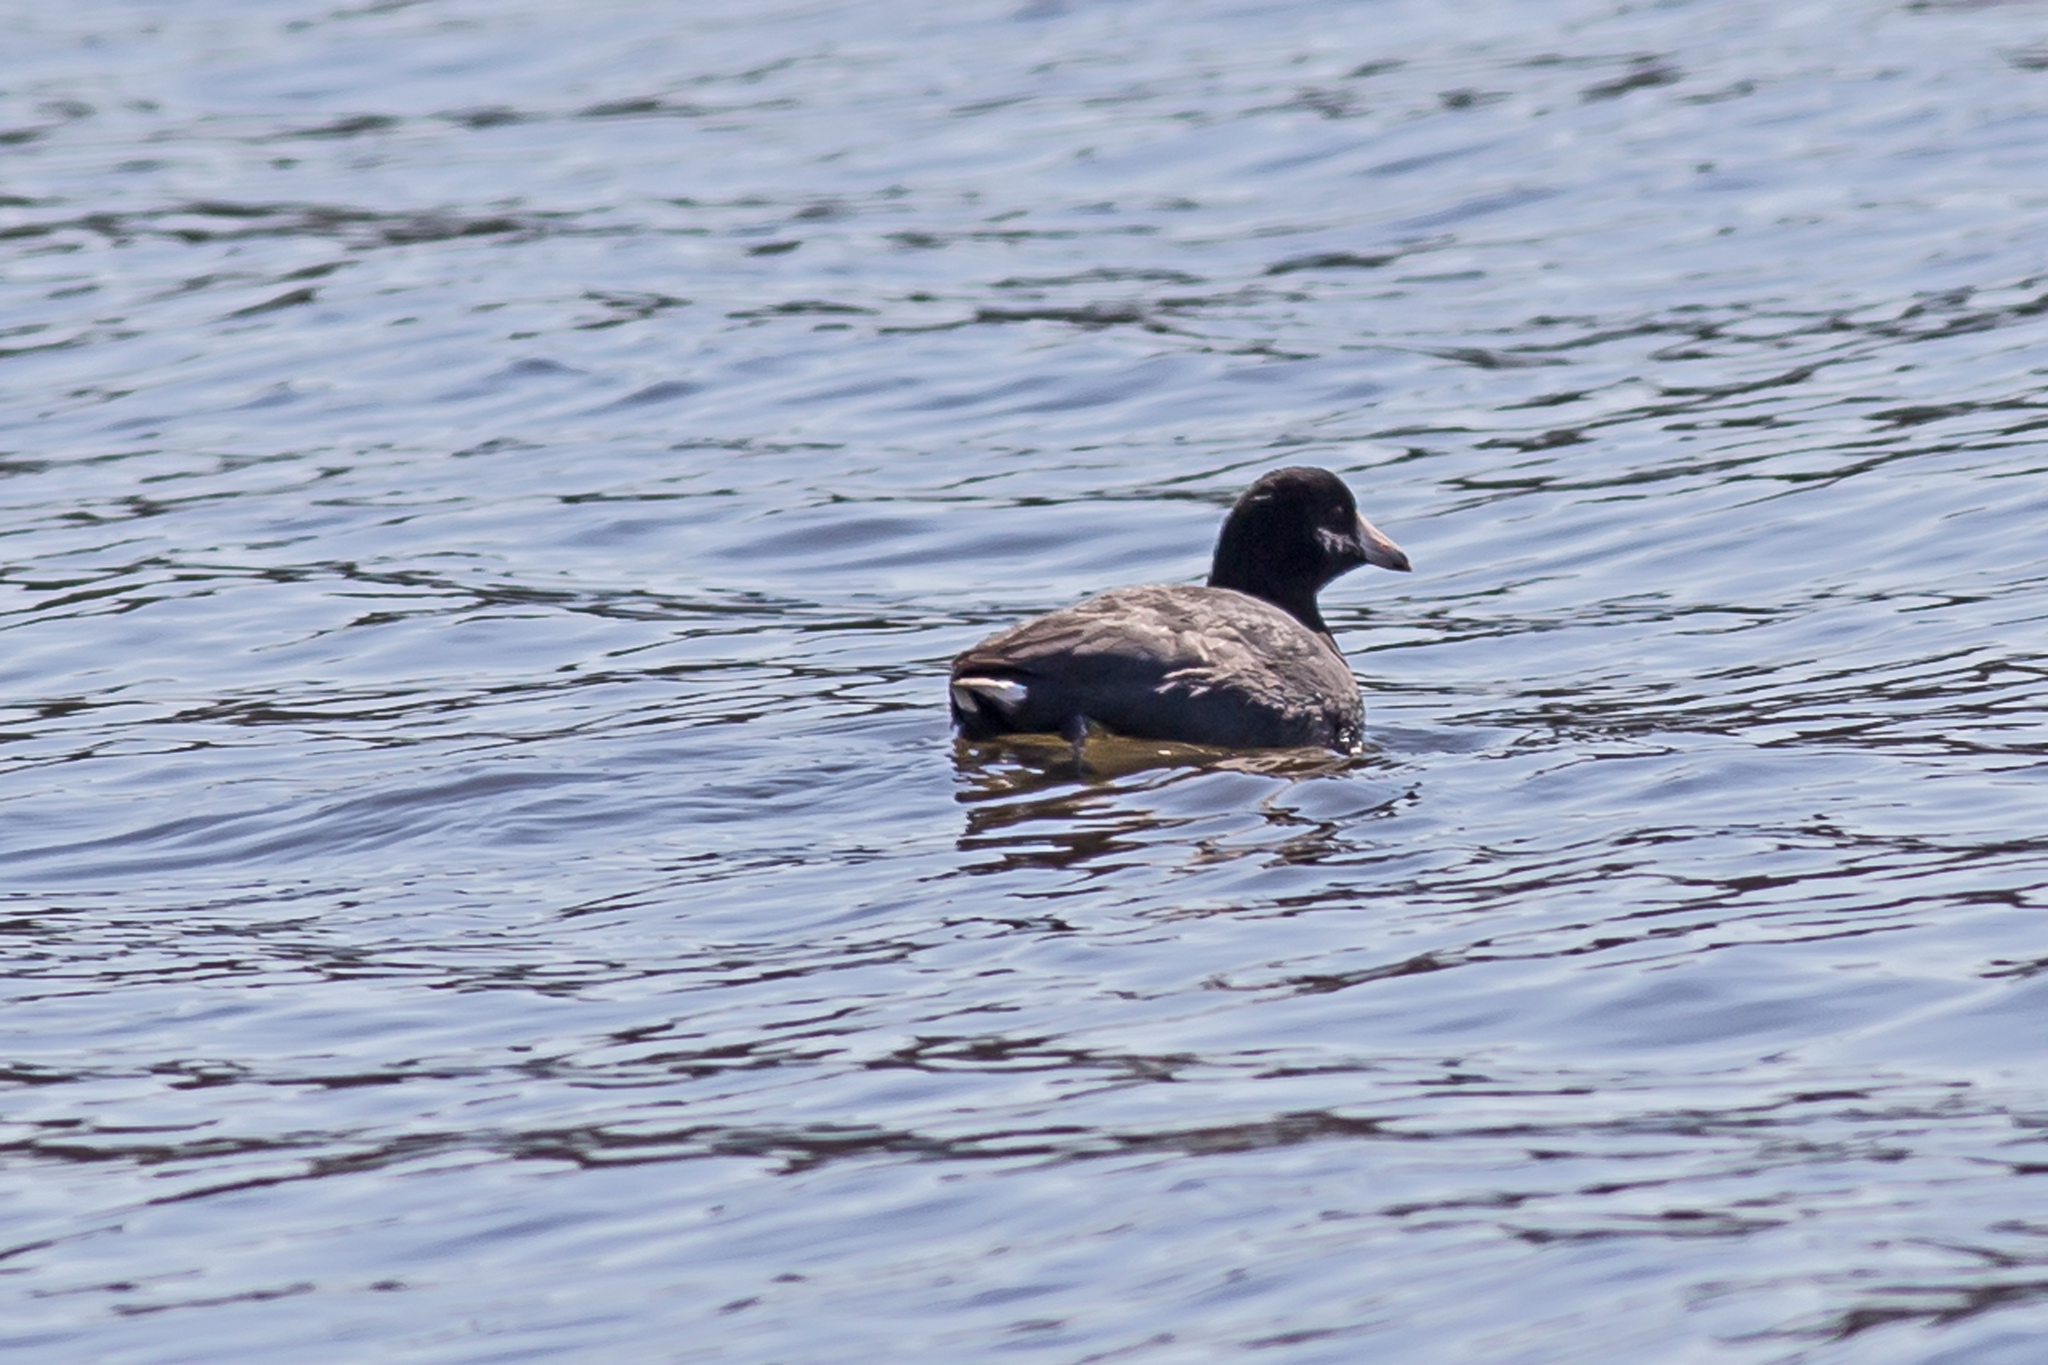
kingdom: Animalia
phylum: Chordata
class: Aves
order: Gruiformes
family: Rallidae
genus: Fulica
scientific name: Fulica americana
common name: American coot
